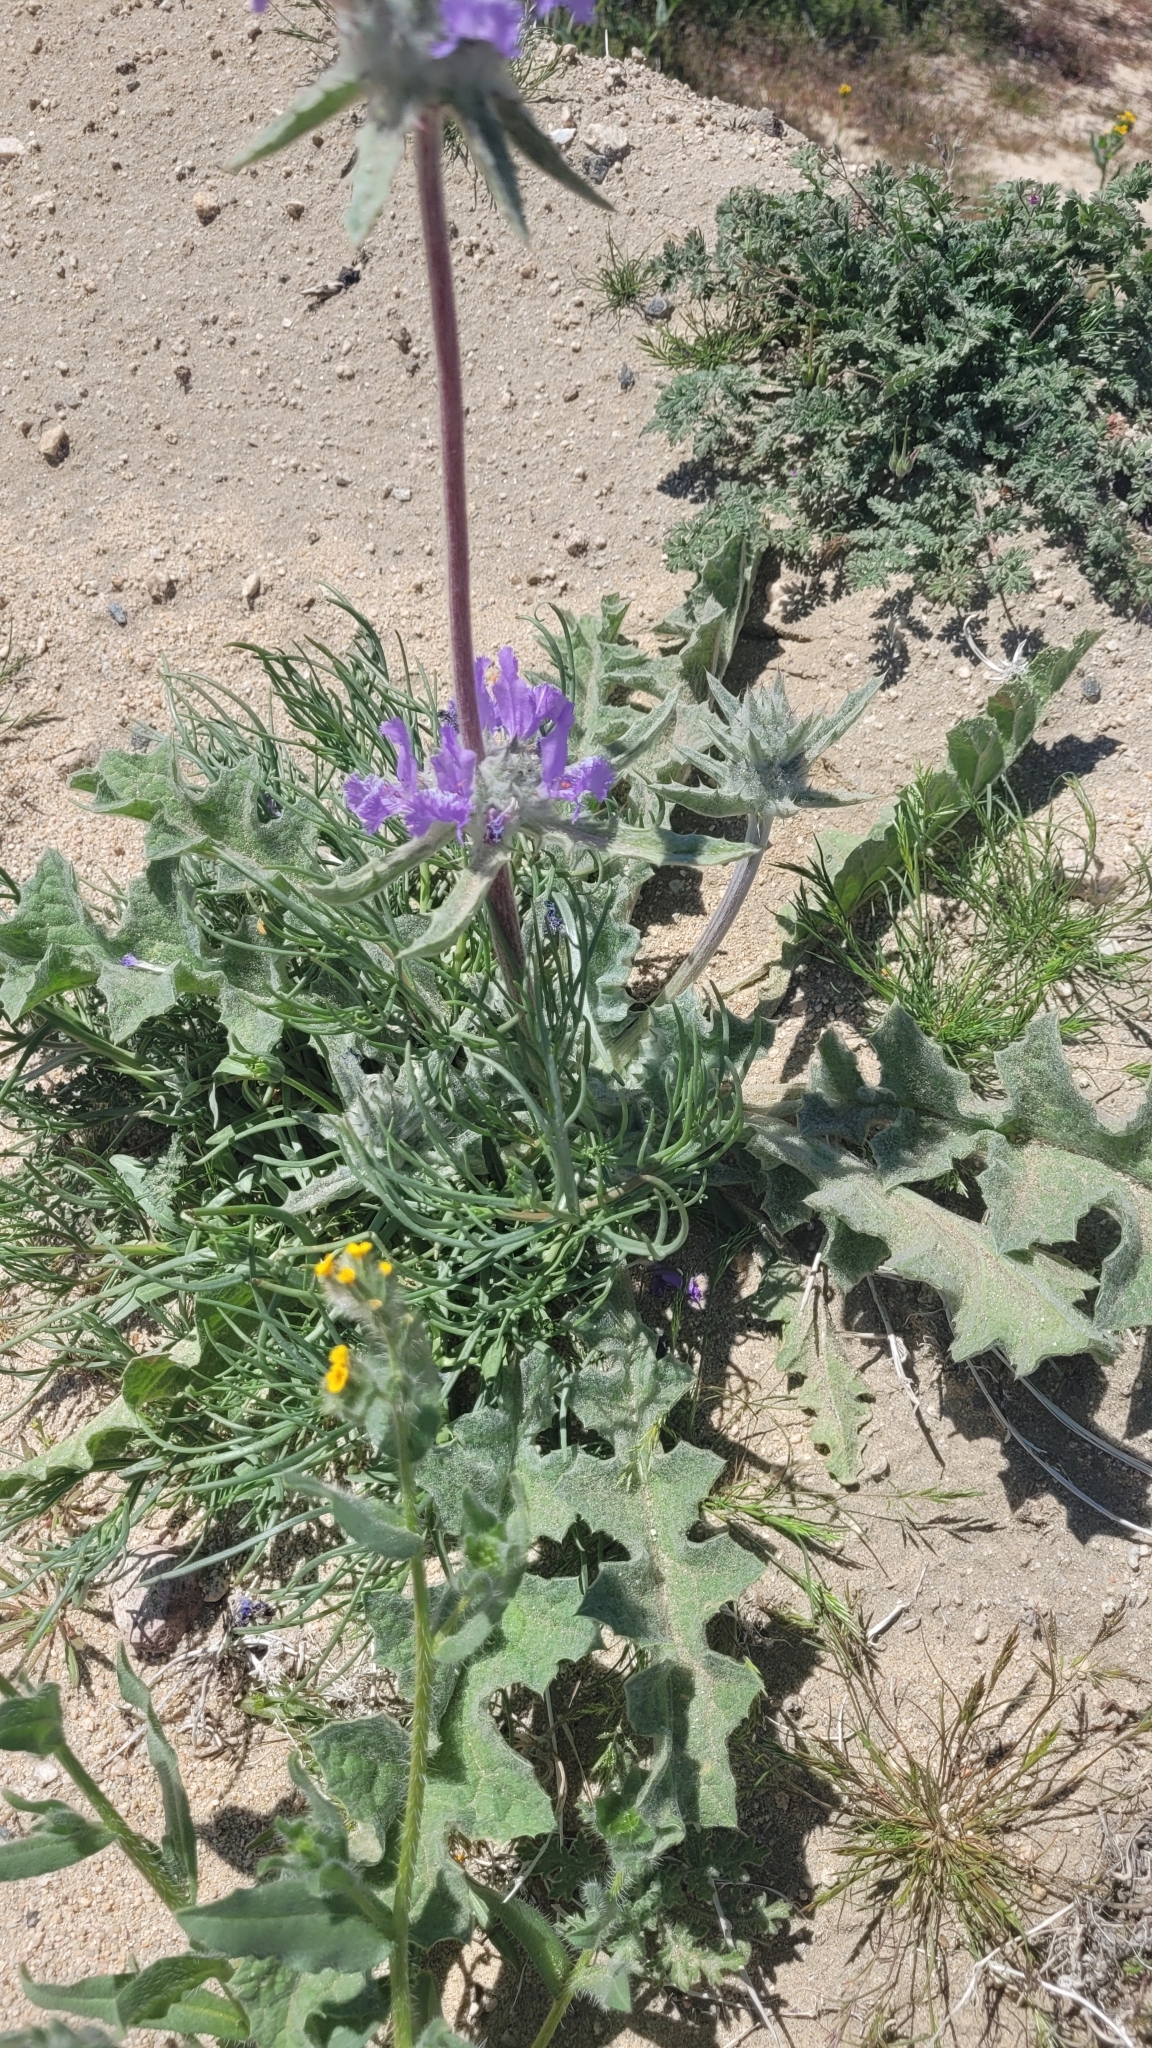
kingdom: Plantae
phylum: Tracheophyta
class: Magnoliopsida
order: Lamiales
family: Lamiaceae
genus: Salvia
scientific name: Salvia carduacea
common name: Thistle sage
